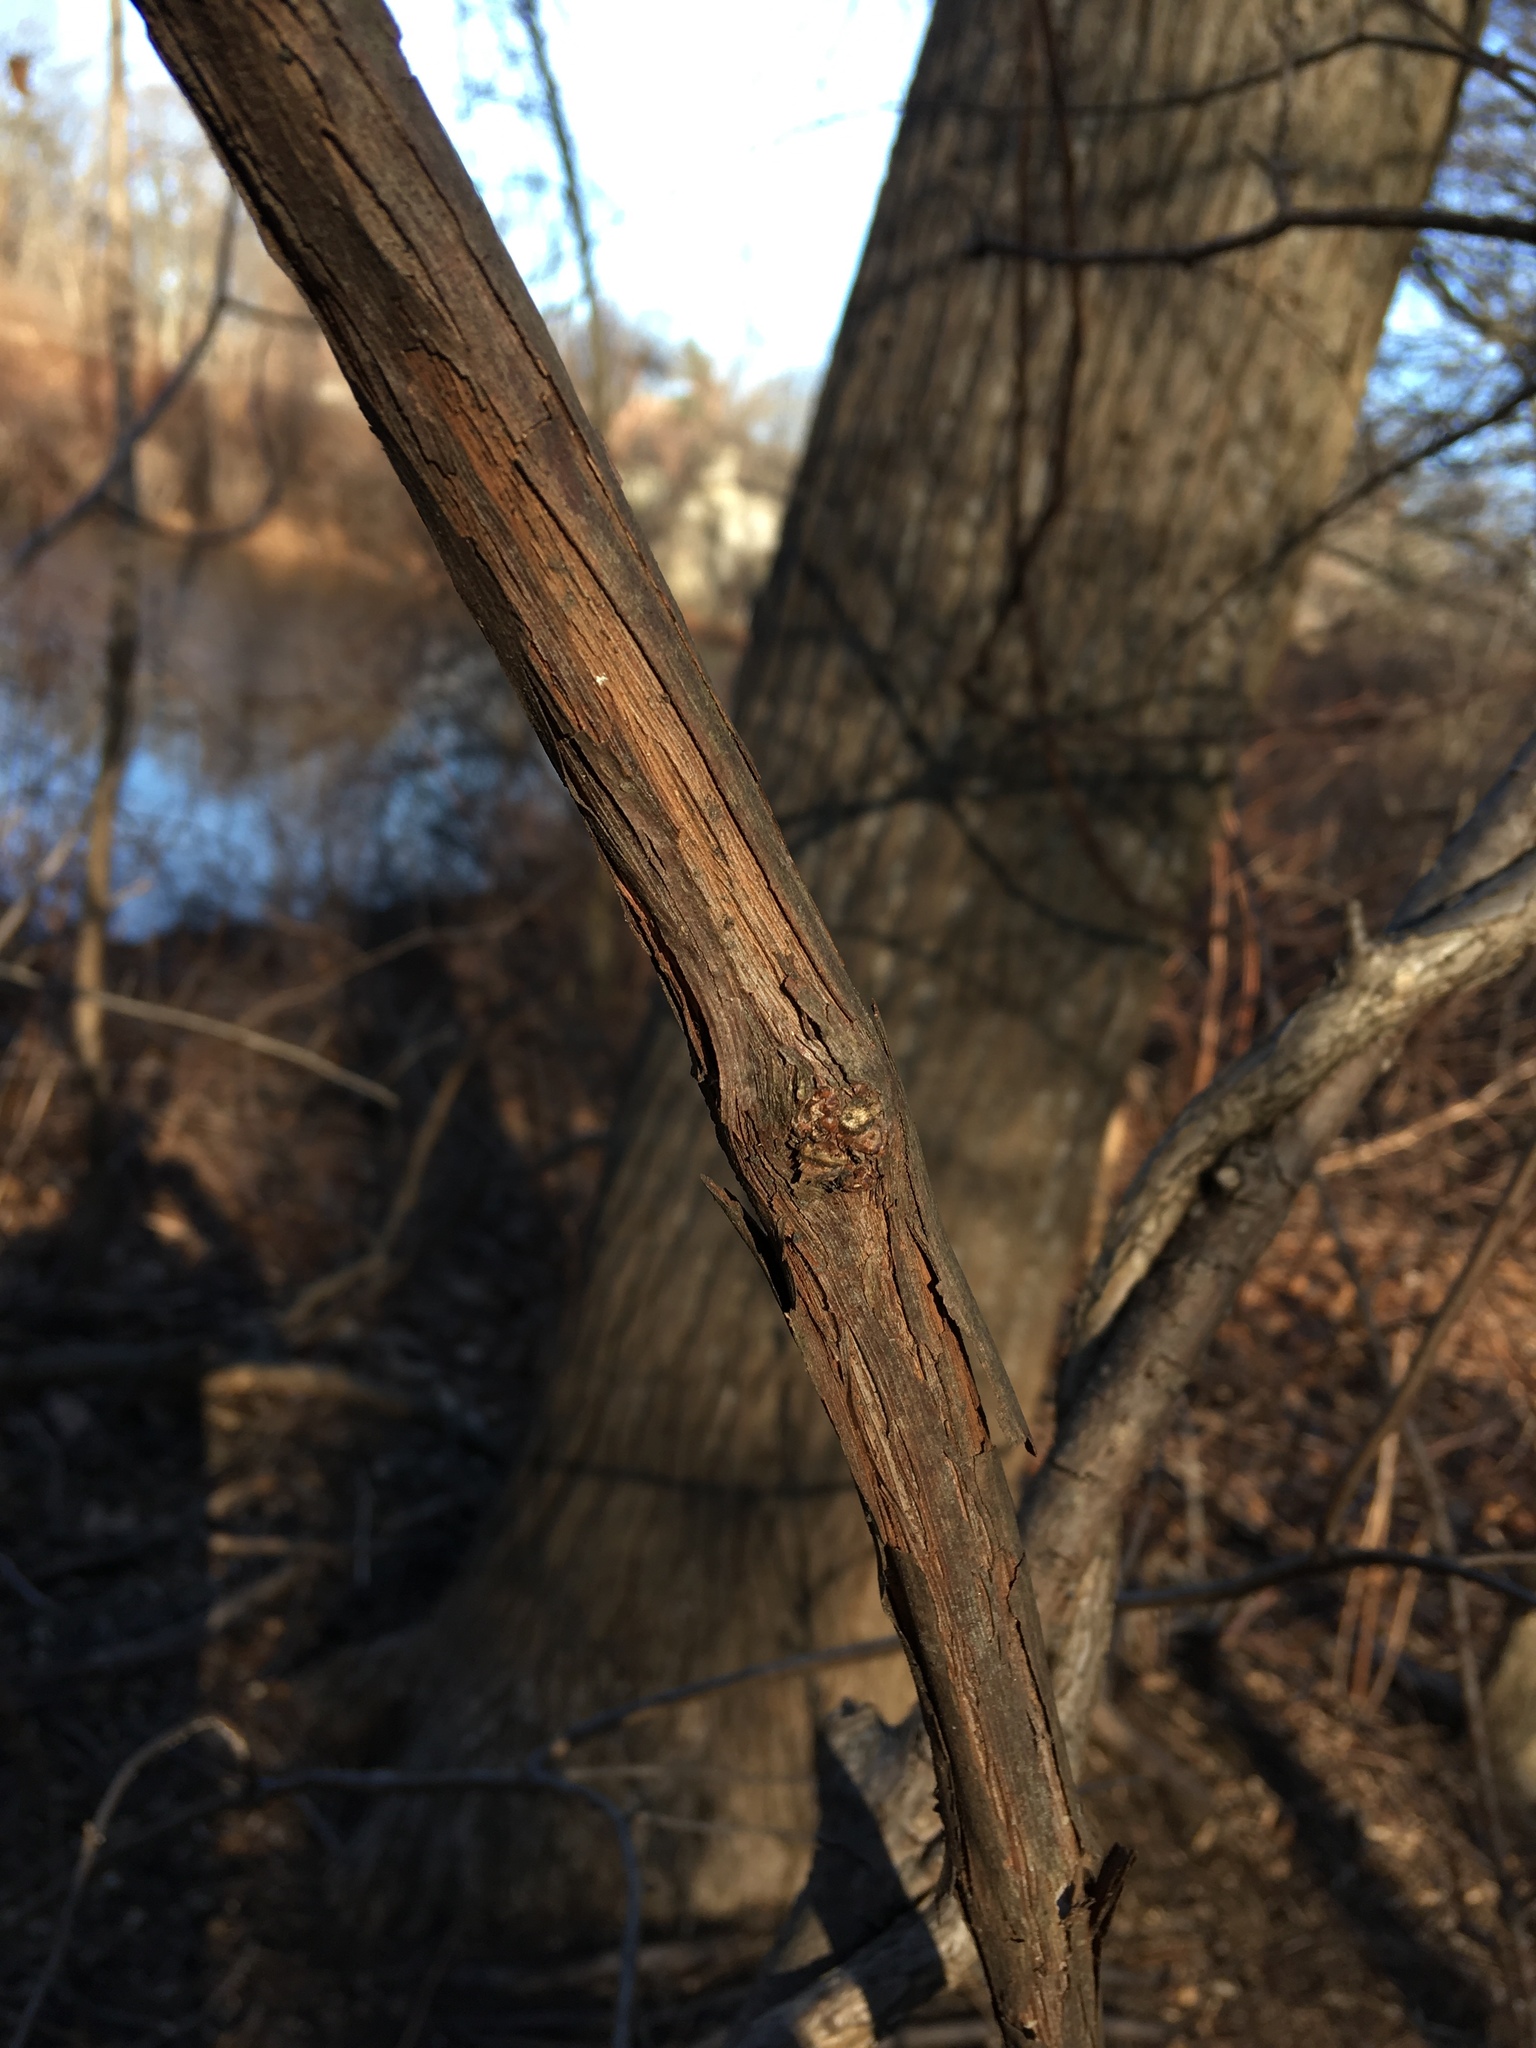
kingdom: Plantae
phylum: Tracheophyta
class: Magnoliopsida
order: Vitales
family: Vitaceae
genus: Vitis
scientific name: Vitis
